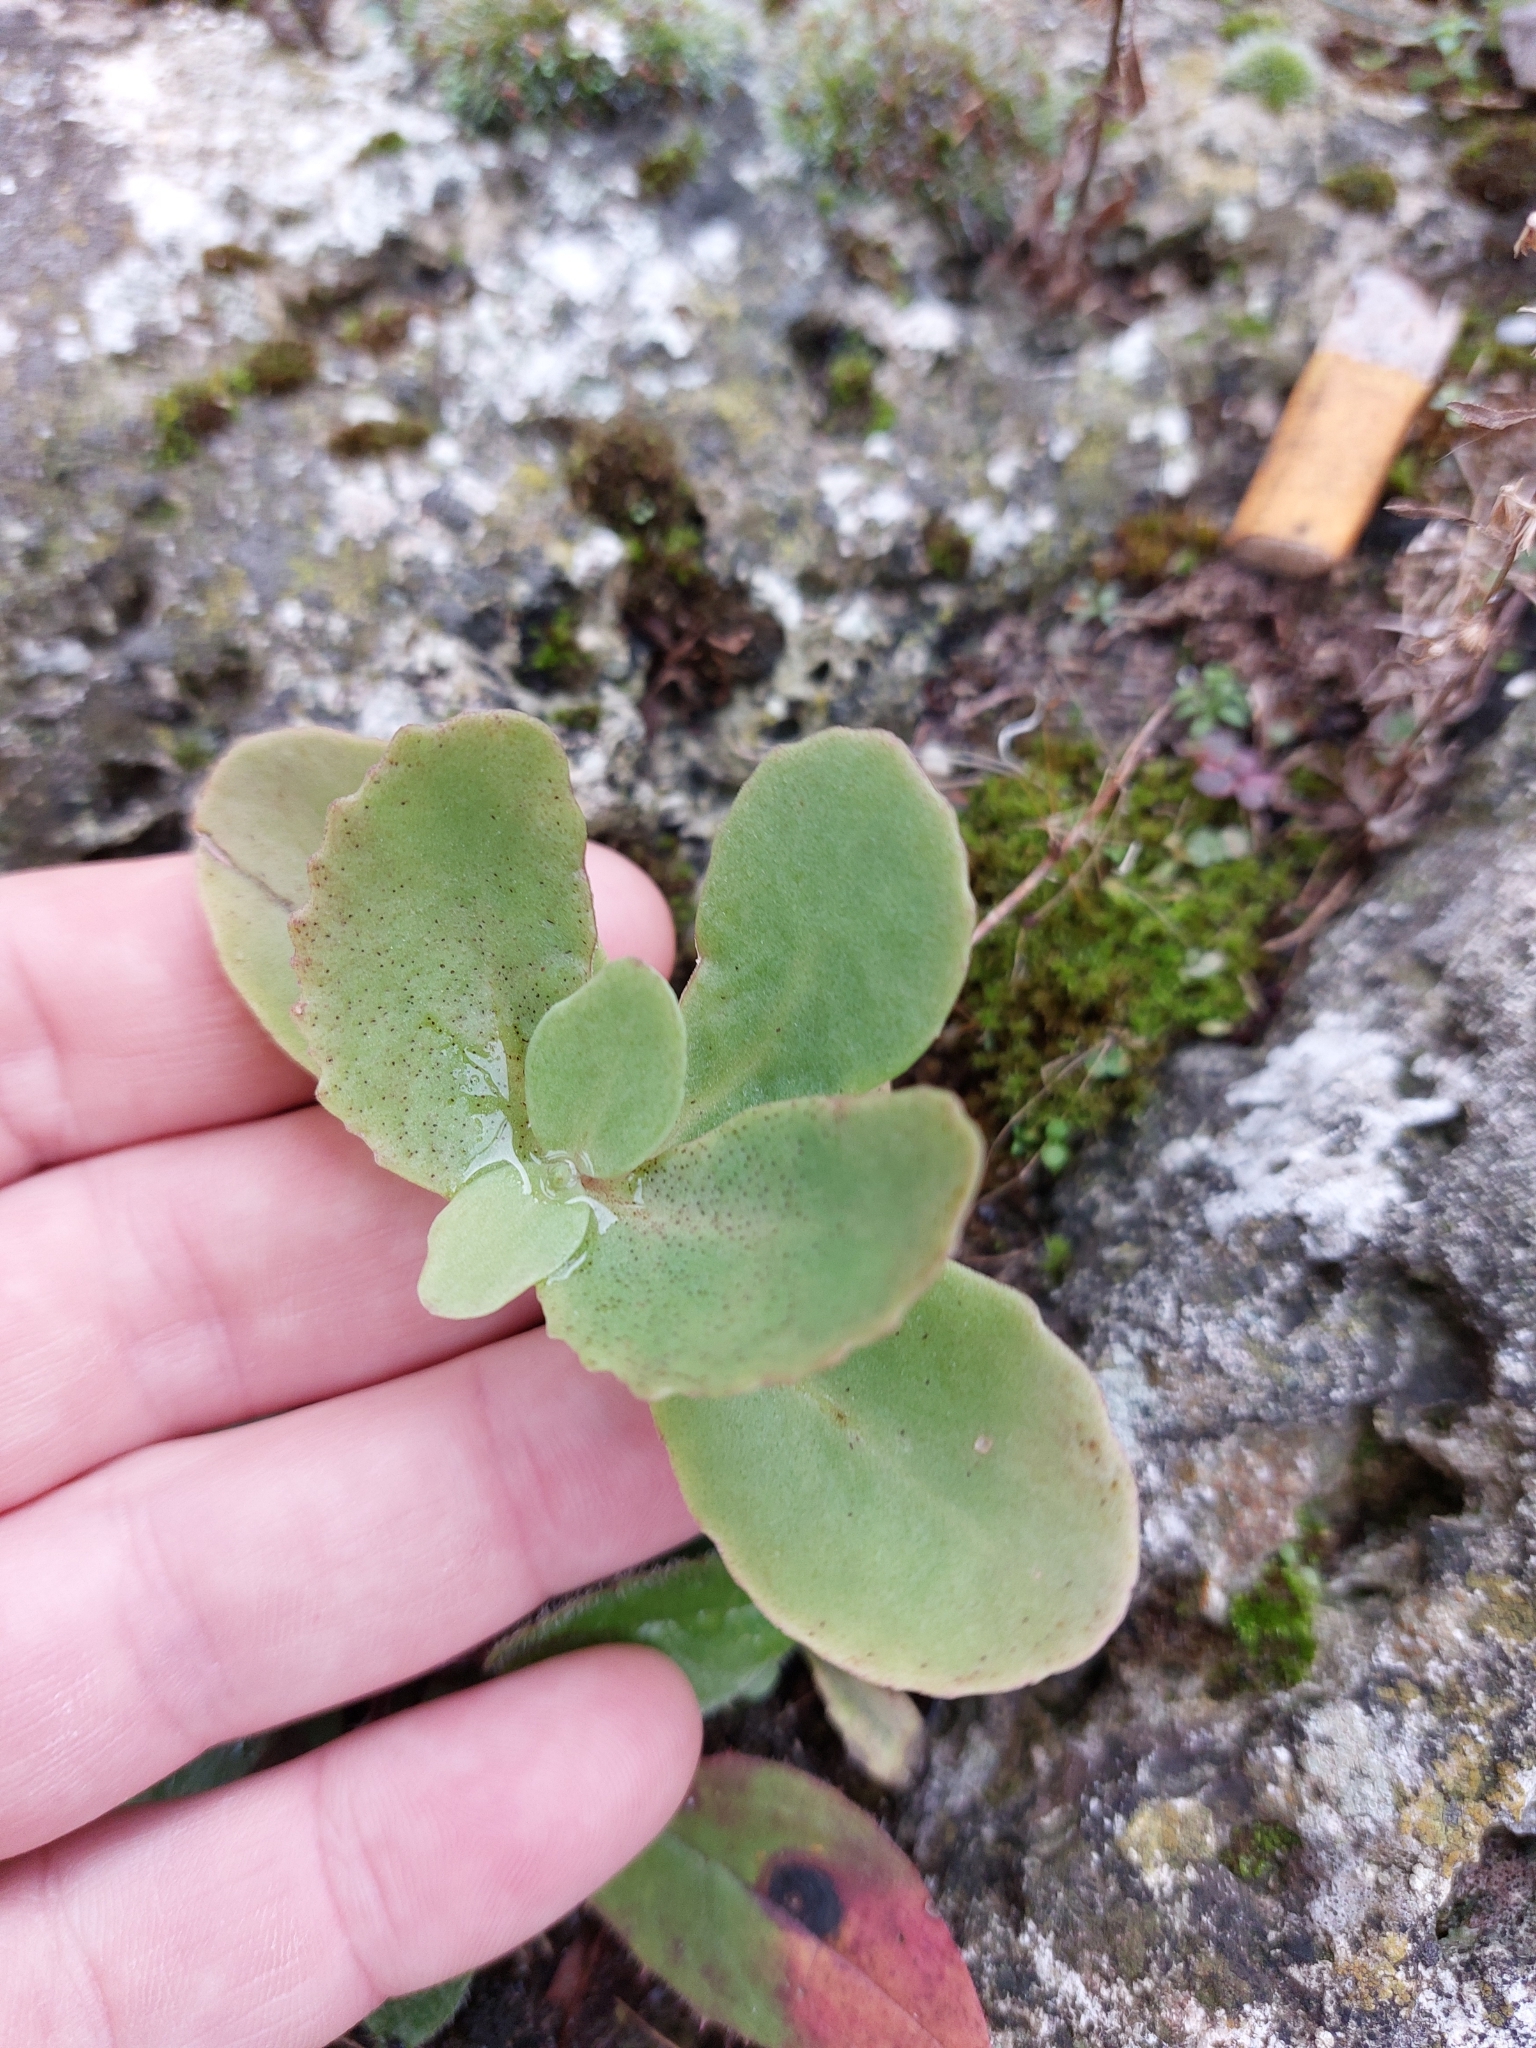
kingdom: Plantae
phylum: Tracheophyta
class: Magnoliopsida
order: Saxifragales
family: Crassulaceae
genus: Hylotelephium
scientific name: Hylotelephium maximum
